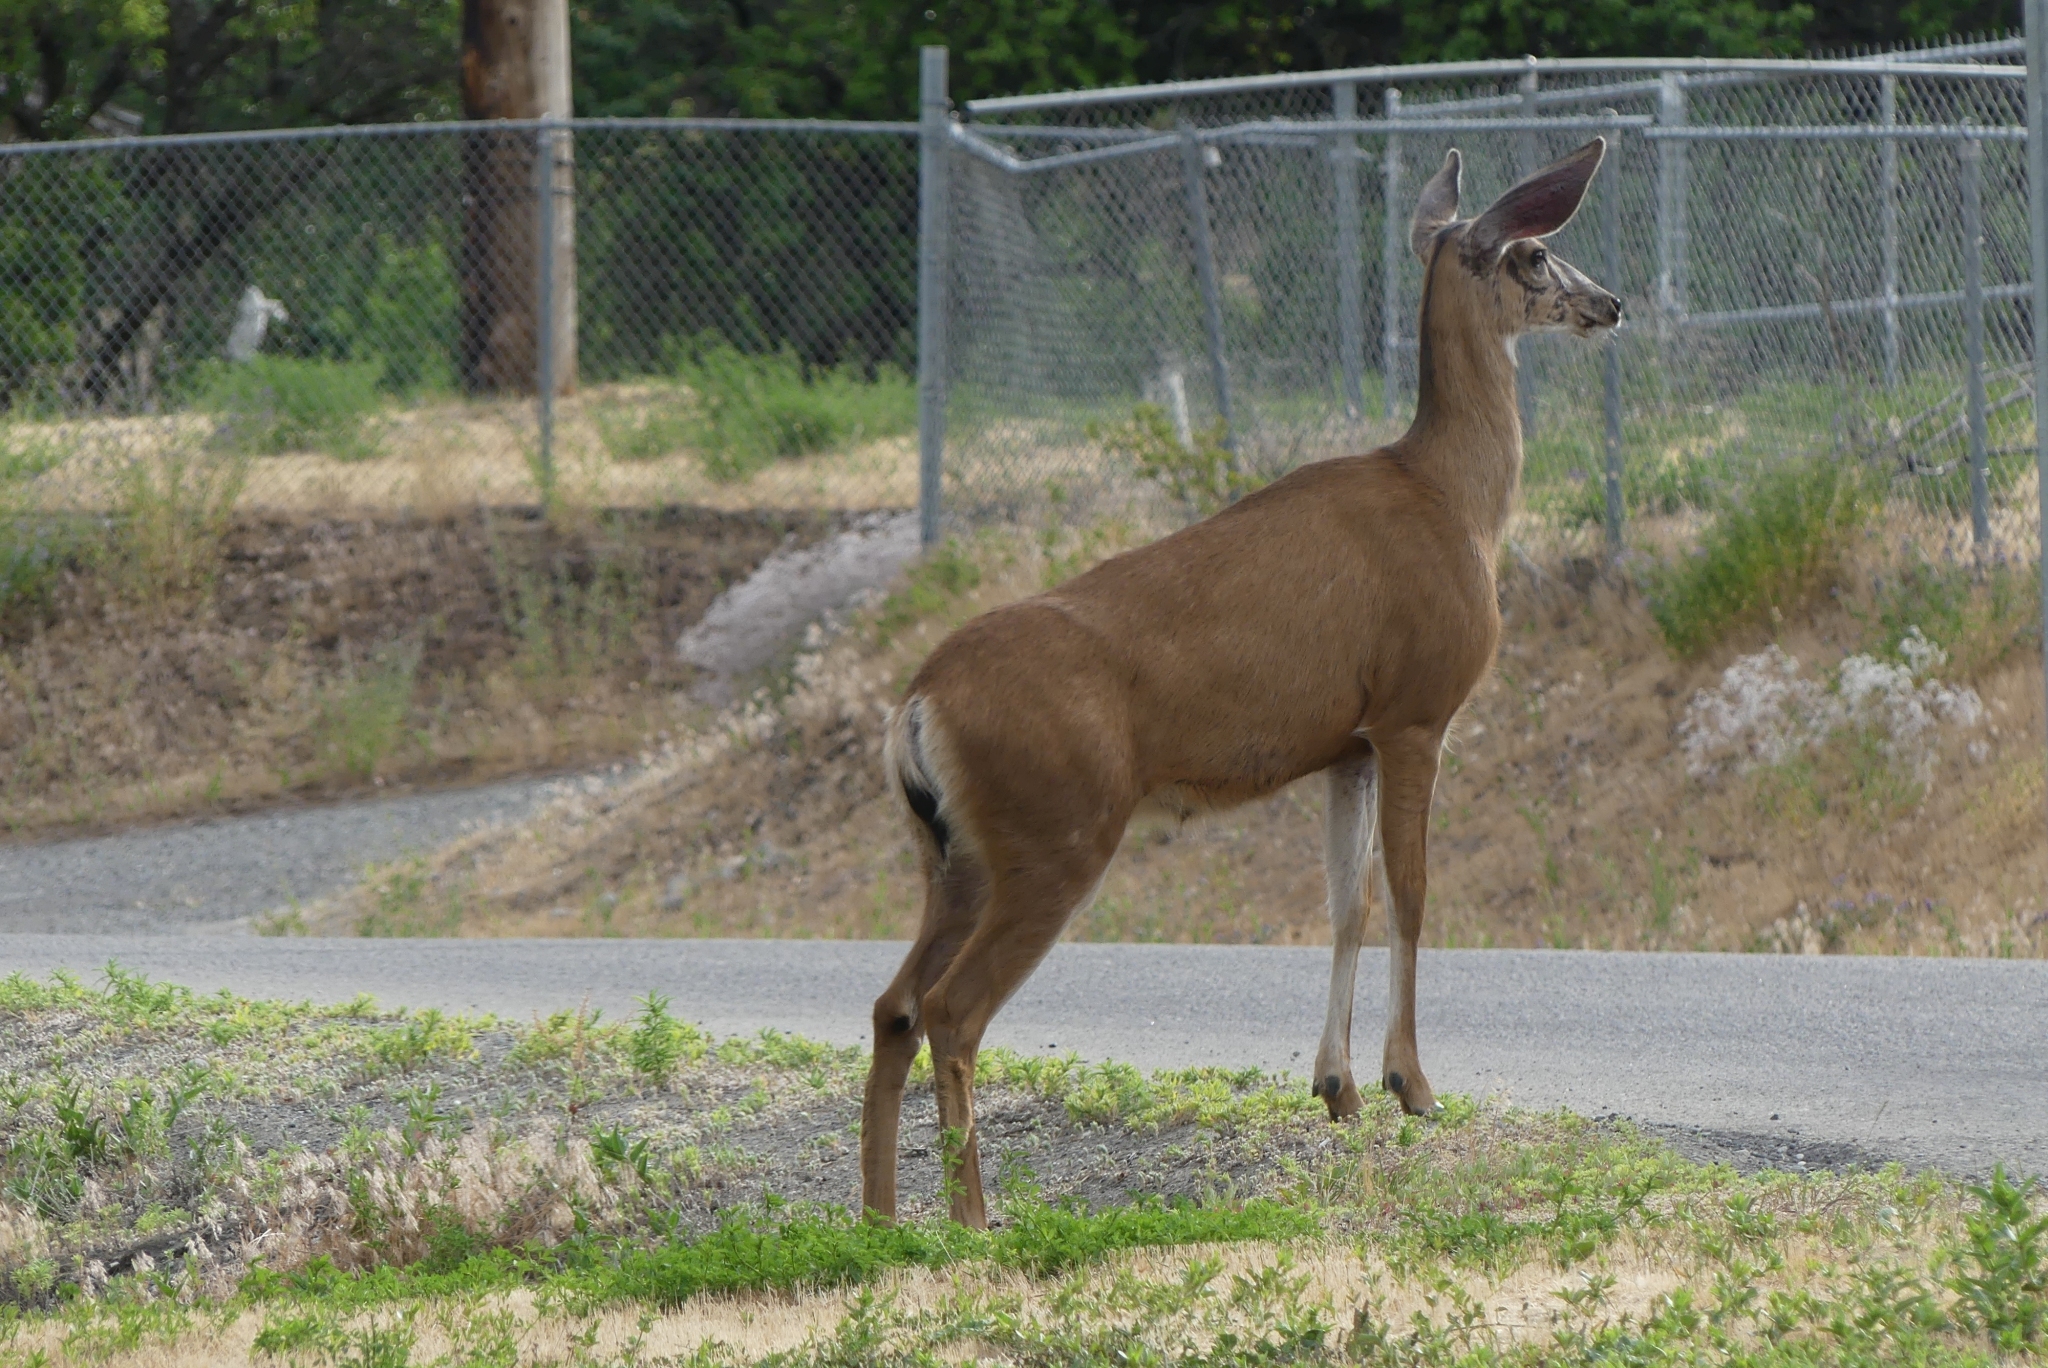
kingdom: Animalia
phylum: Chordata
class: Mammalia
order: Artiodactyla
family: Cervidae
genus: Odocoileus
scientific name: Odocoileus hemionus
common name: Mule deer
